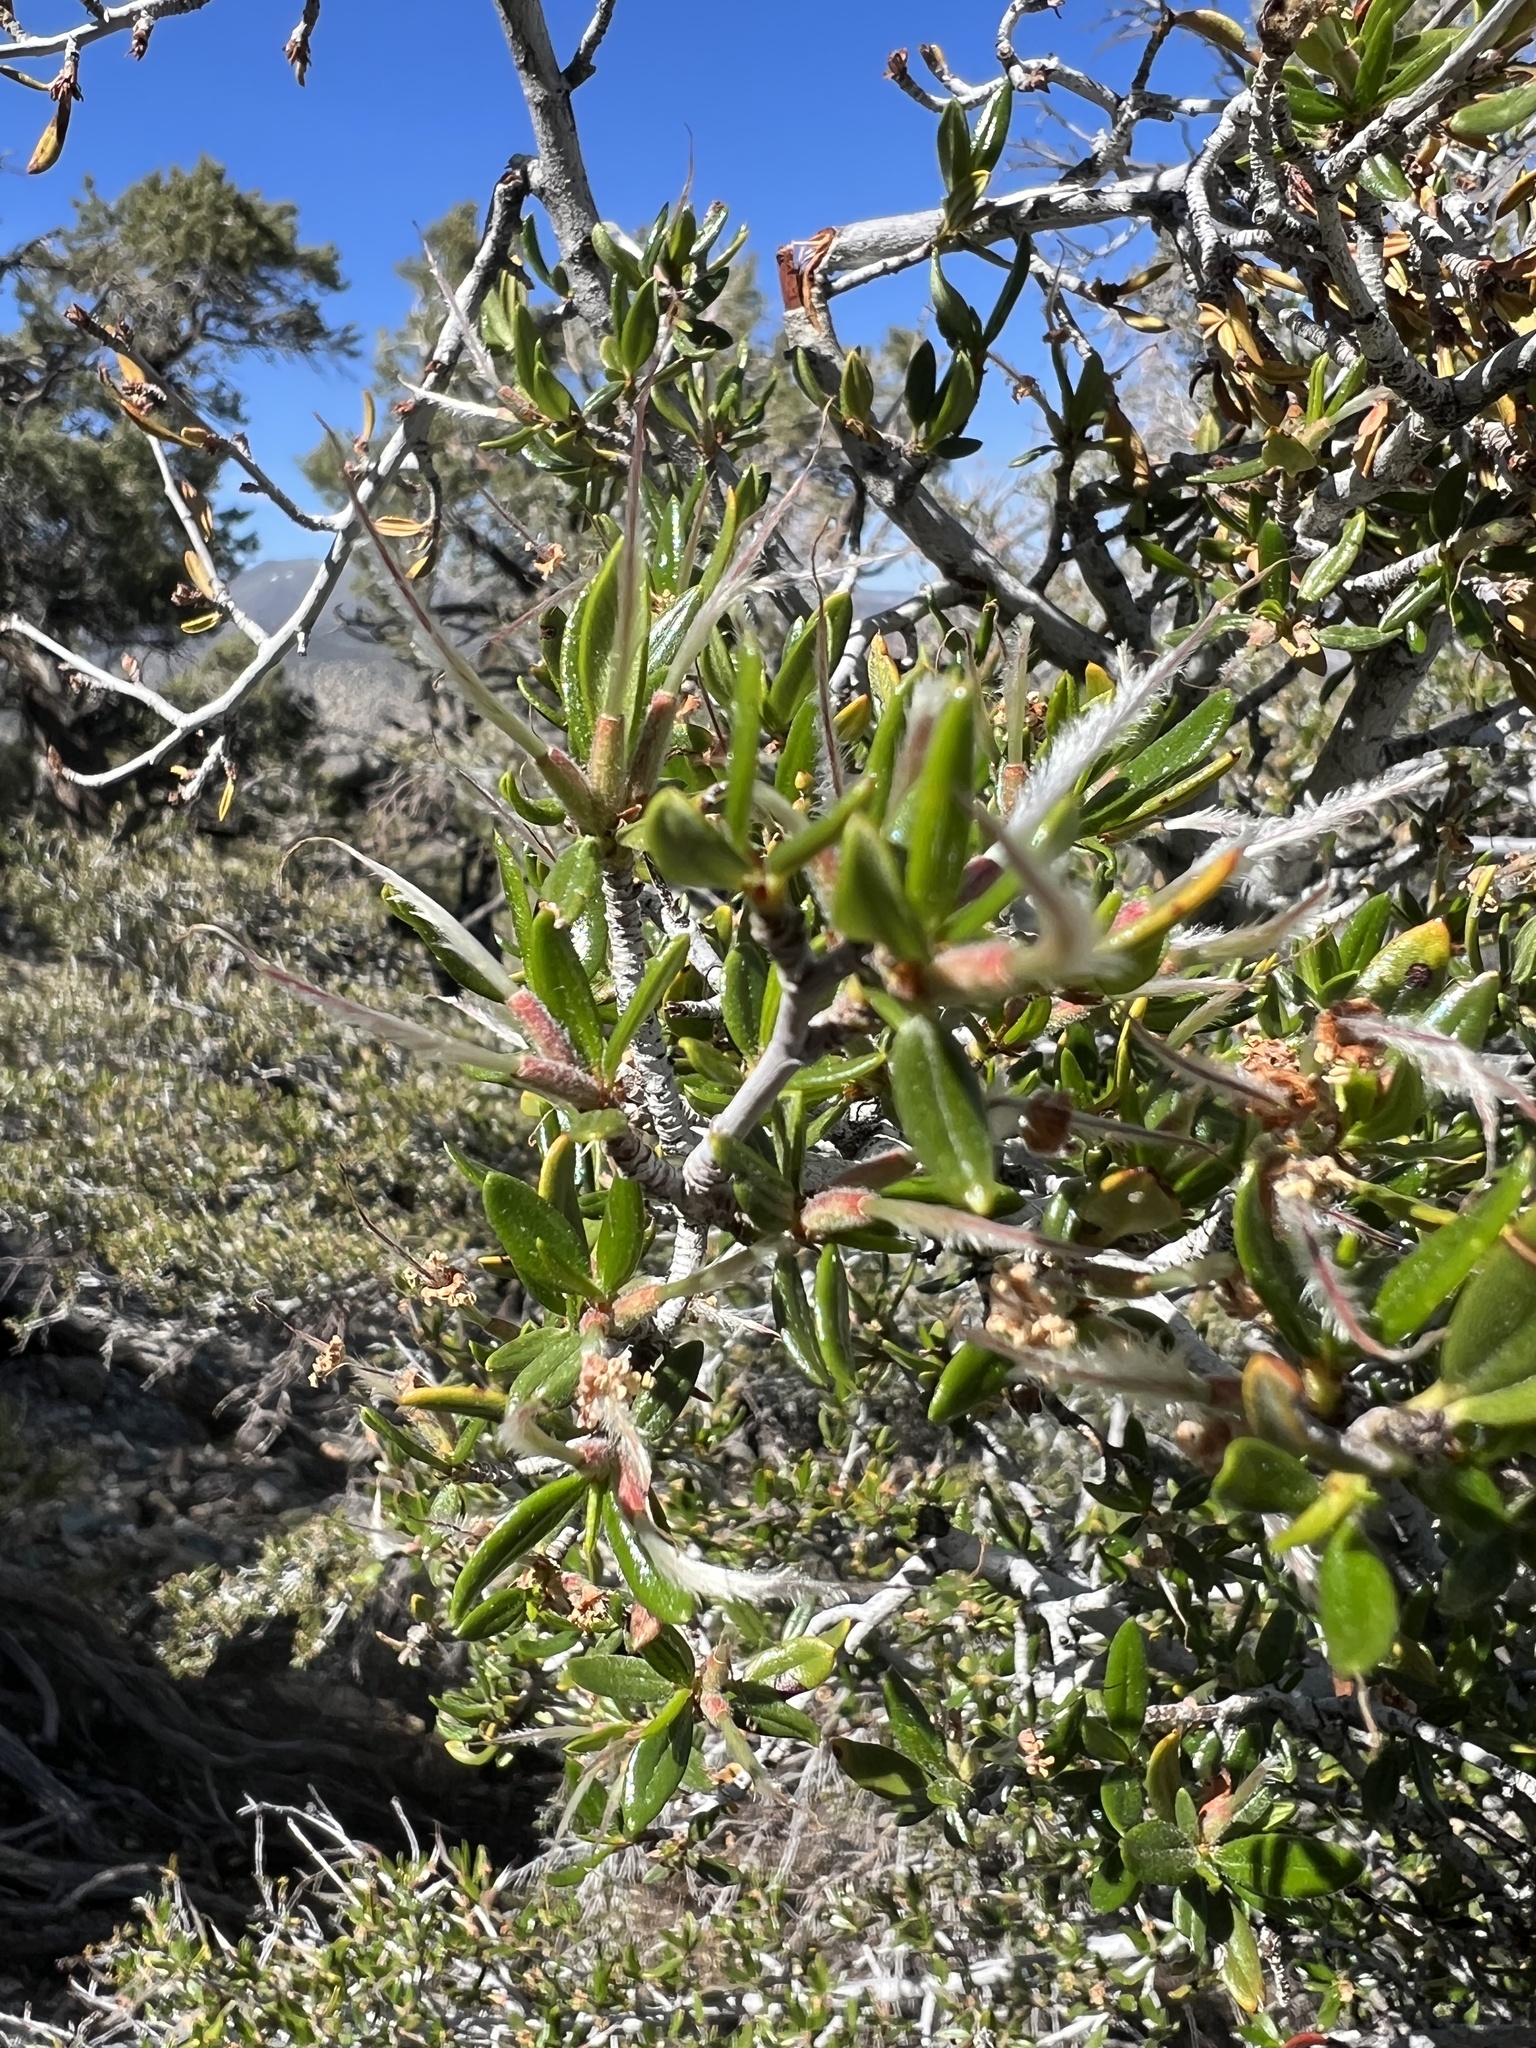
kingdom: Plantae
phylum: Tracheophyta
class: Magnoliopsida
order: Rosales
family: Rosaceae
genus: Cercocarpus
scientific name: Cercocarpus ledifolius
